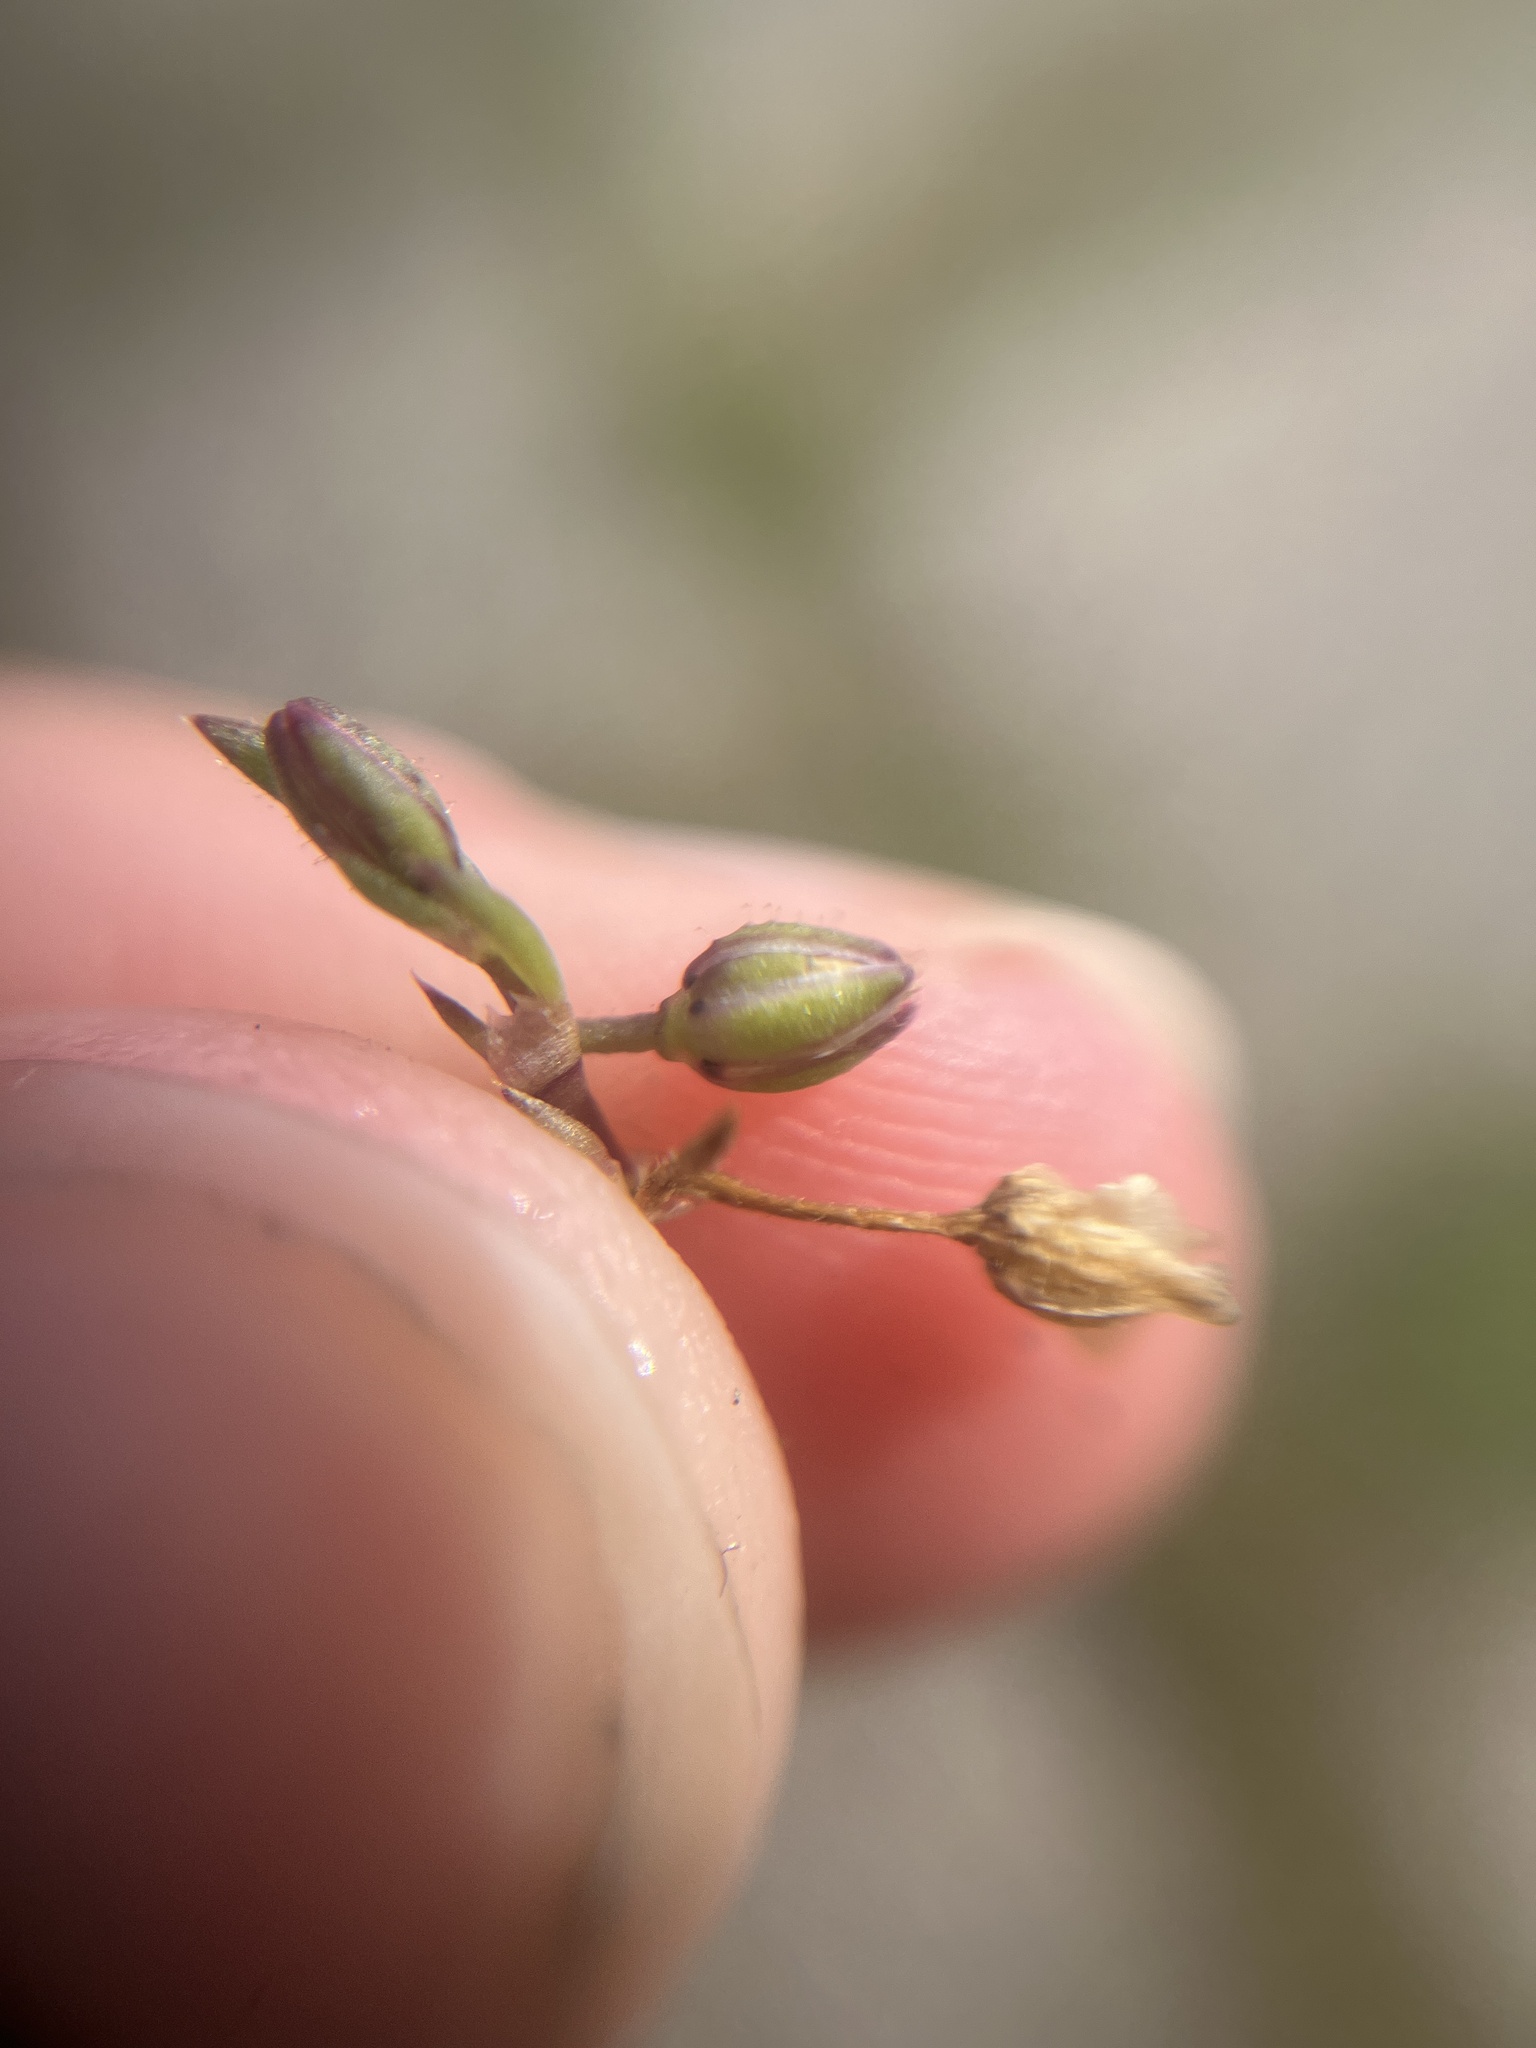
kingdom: Plantae
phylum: Tracheophyta
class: Magnoliopsida
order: Caryophyllales
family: Caryophyllaceae
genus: Spergularia
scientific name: Spergularia marina
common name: Lesser sea-spurrey
